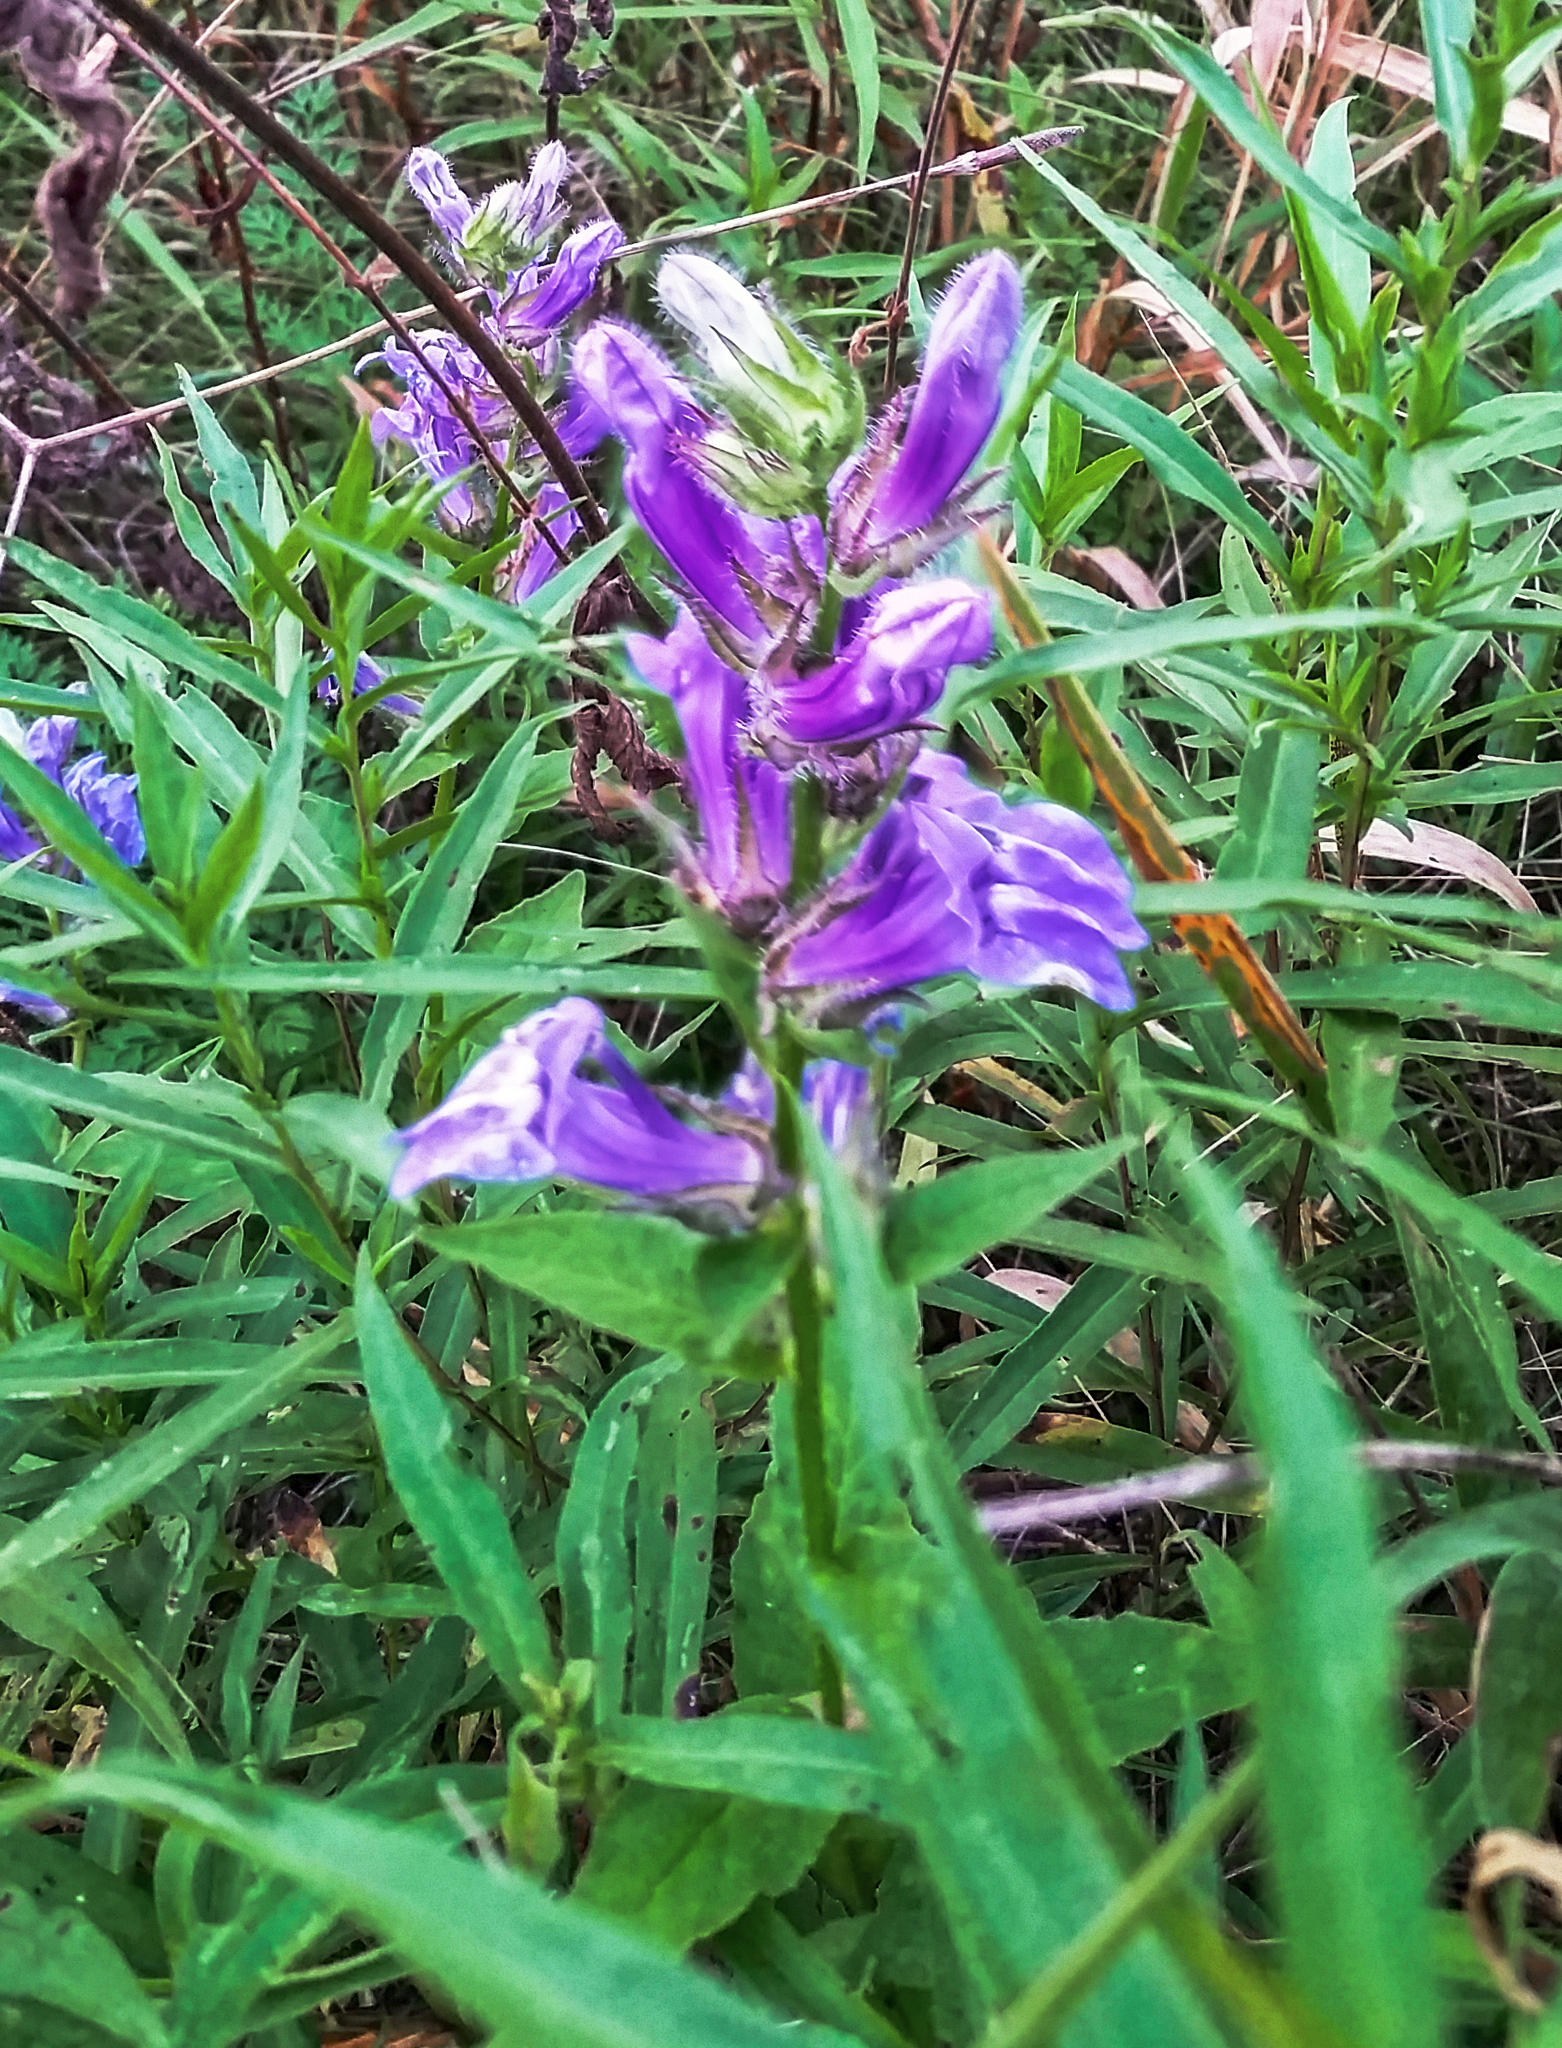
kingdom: Plantae
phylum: Tracheophyta
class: Magnoliopsida
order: Asterales
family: Campanulaceae
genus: Lobelia
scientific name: Lobelia siphilitica
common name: Great lobelia
